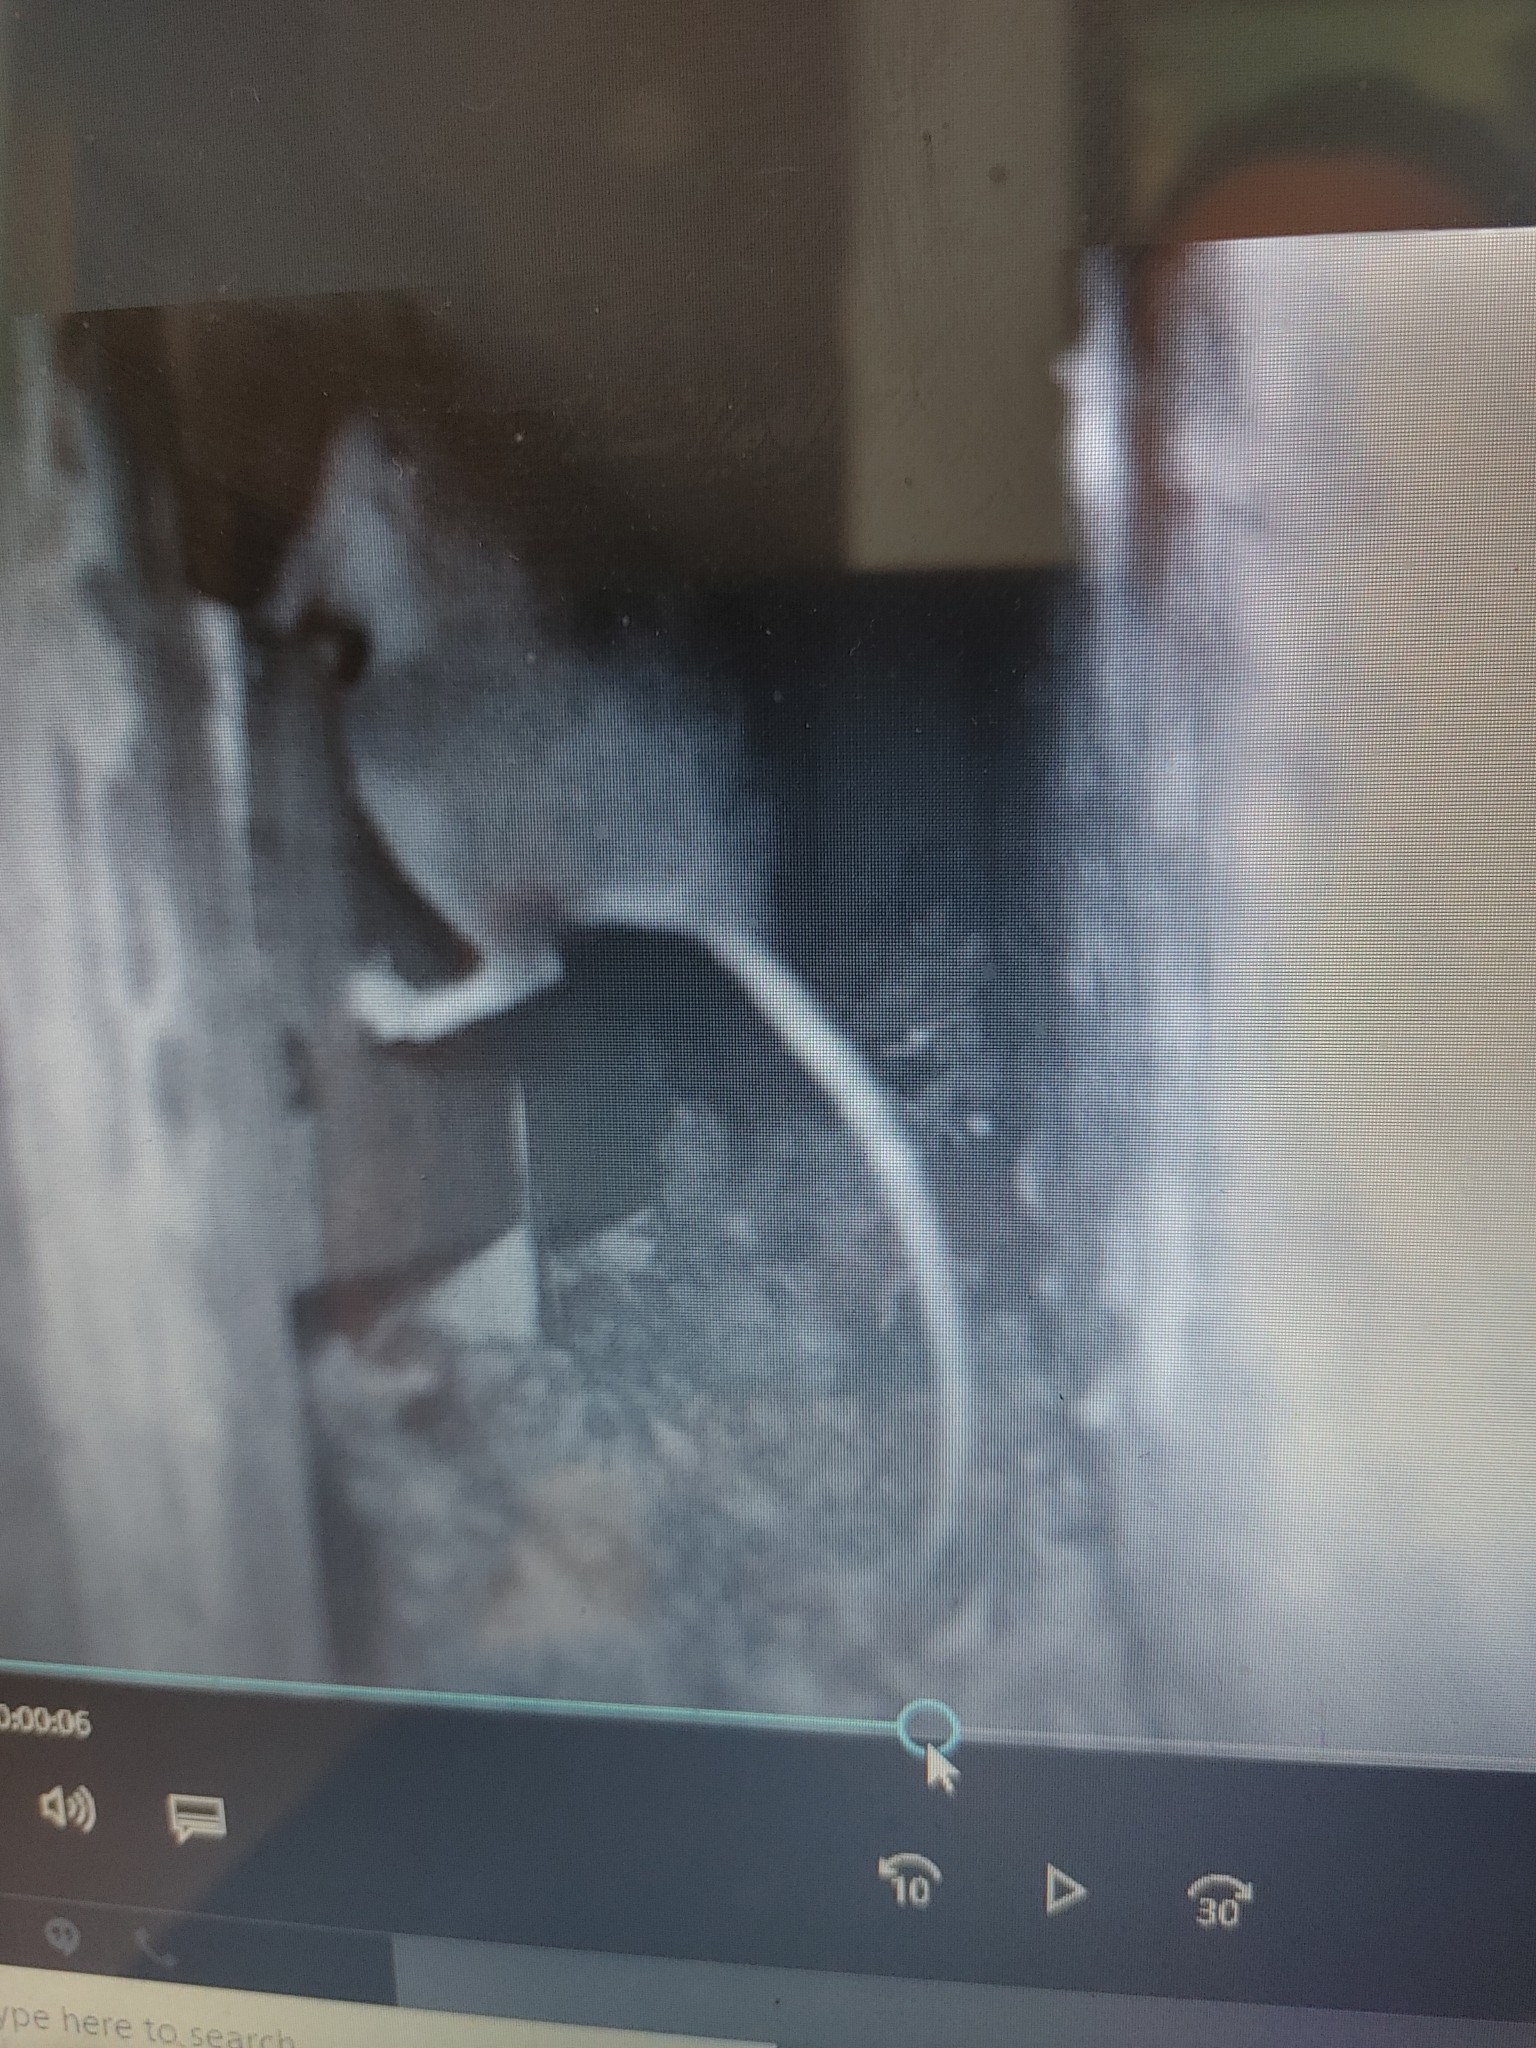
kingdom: Animalia
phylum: Chordata
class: Mammalia
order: Rodentia
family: Cricetidae
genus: Neotoma
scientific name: Neotoma floridana
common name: Eastern woodrat
